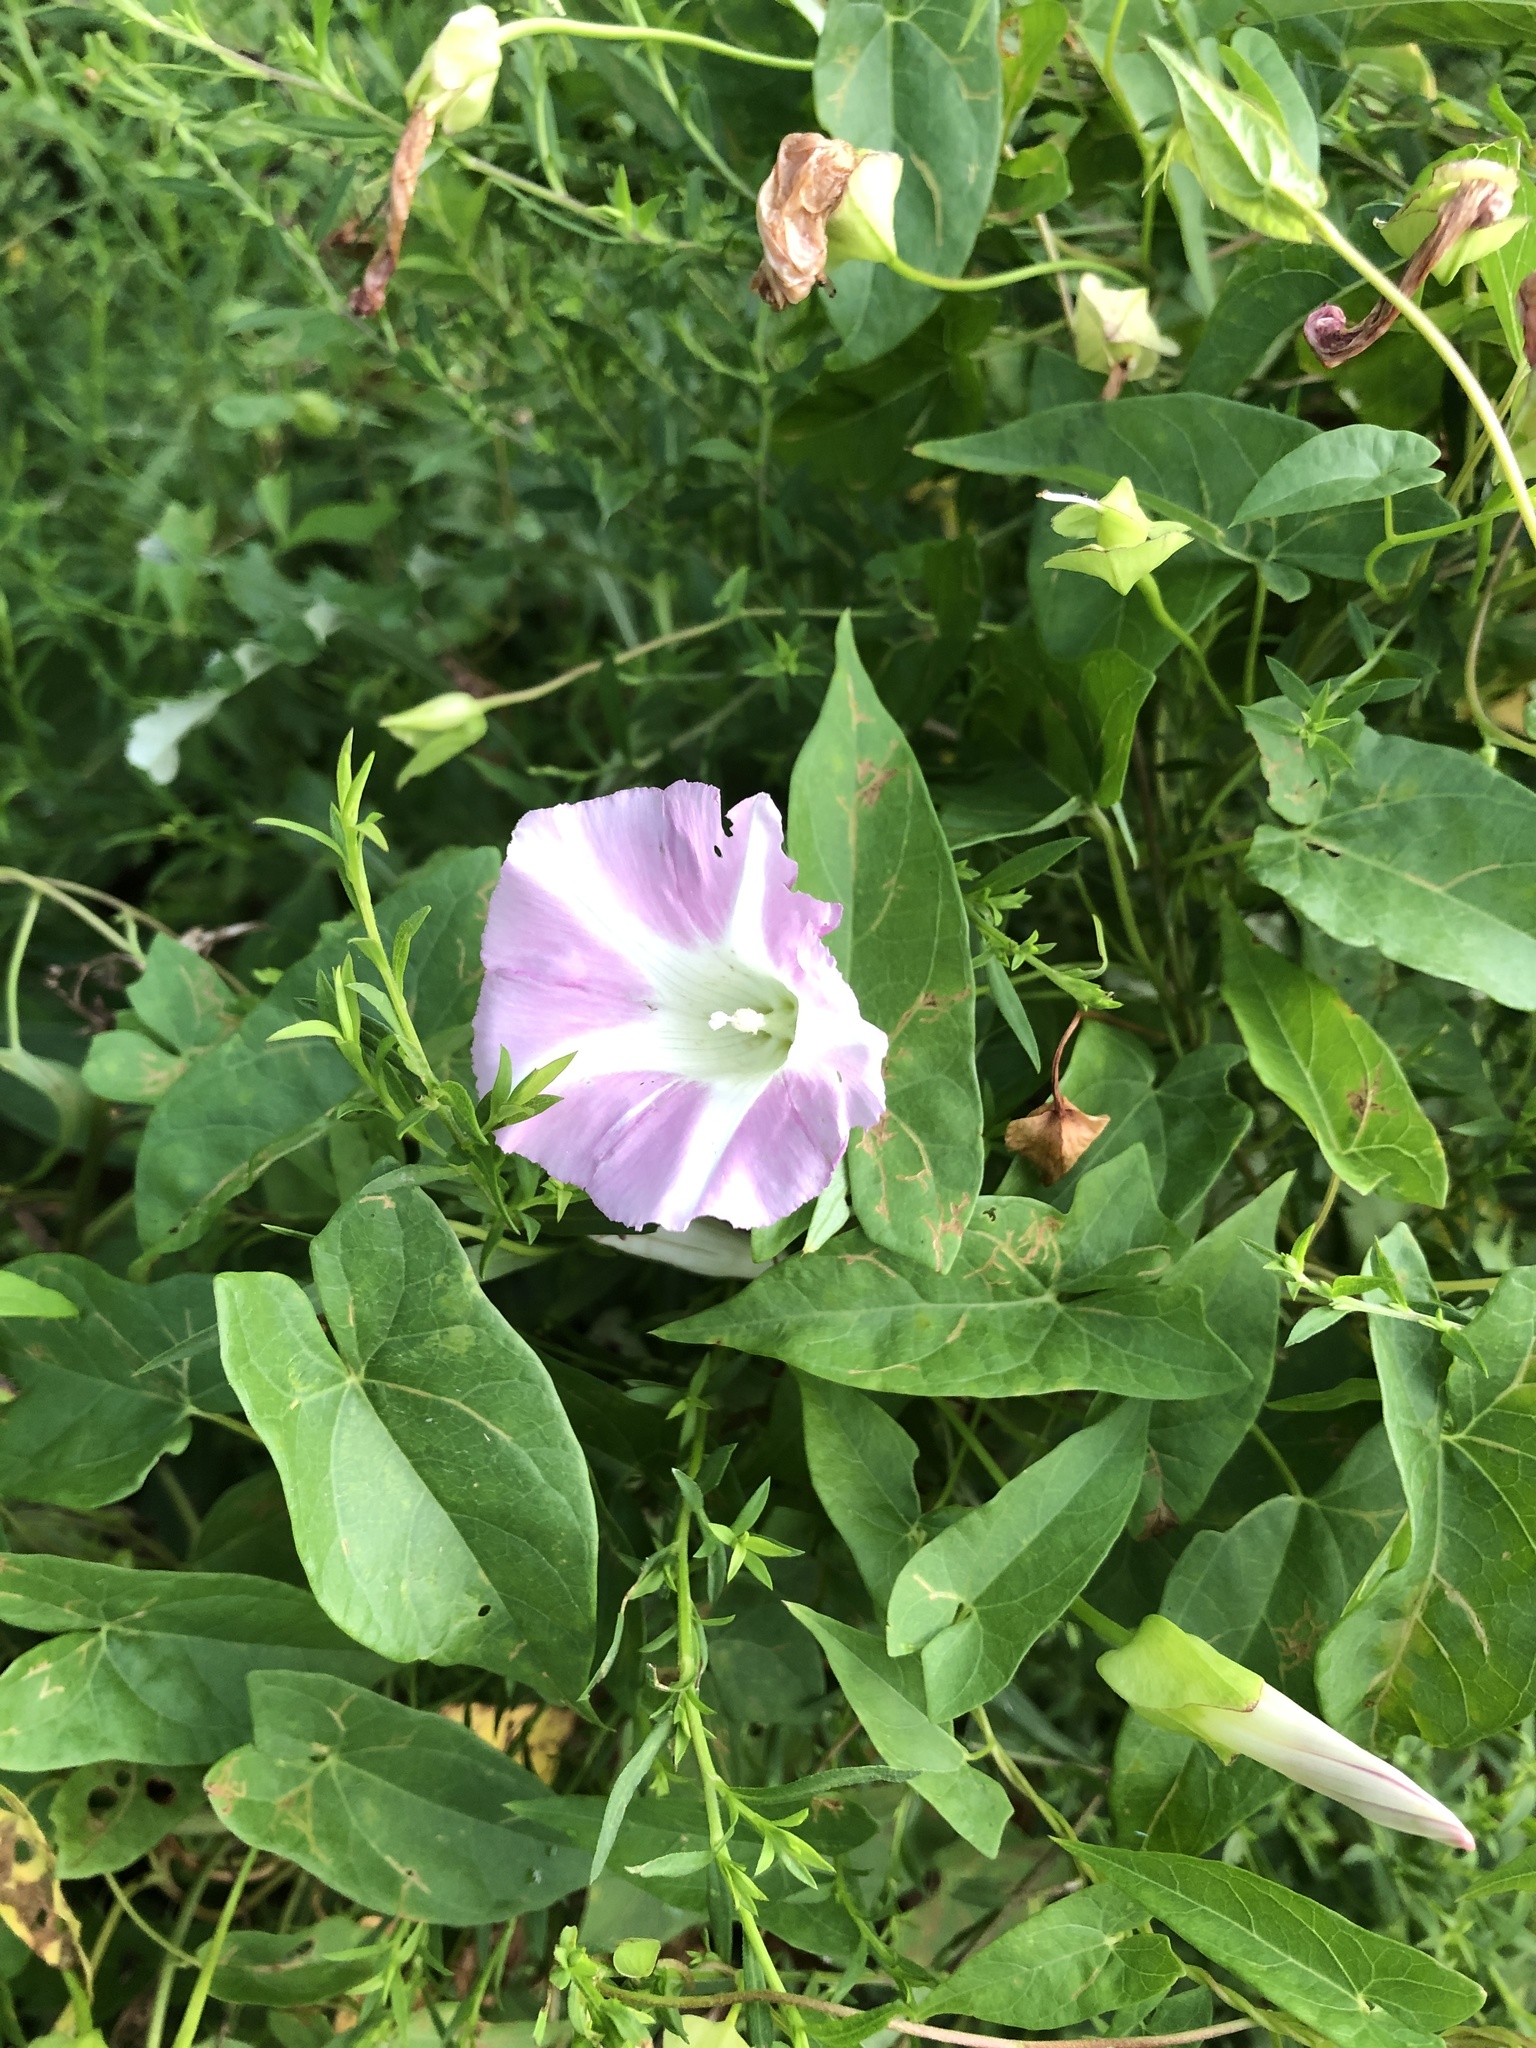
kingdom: Plantae
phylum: Tracheophyta
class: Magnoliopsida
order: Solanales
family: Convolvulaceae
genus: Calystegia
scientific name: Calystegia sepium
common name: Hedge bindweed
